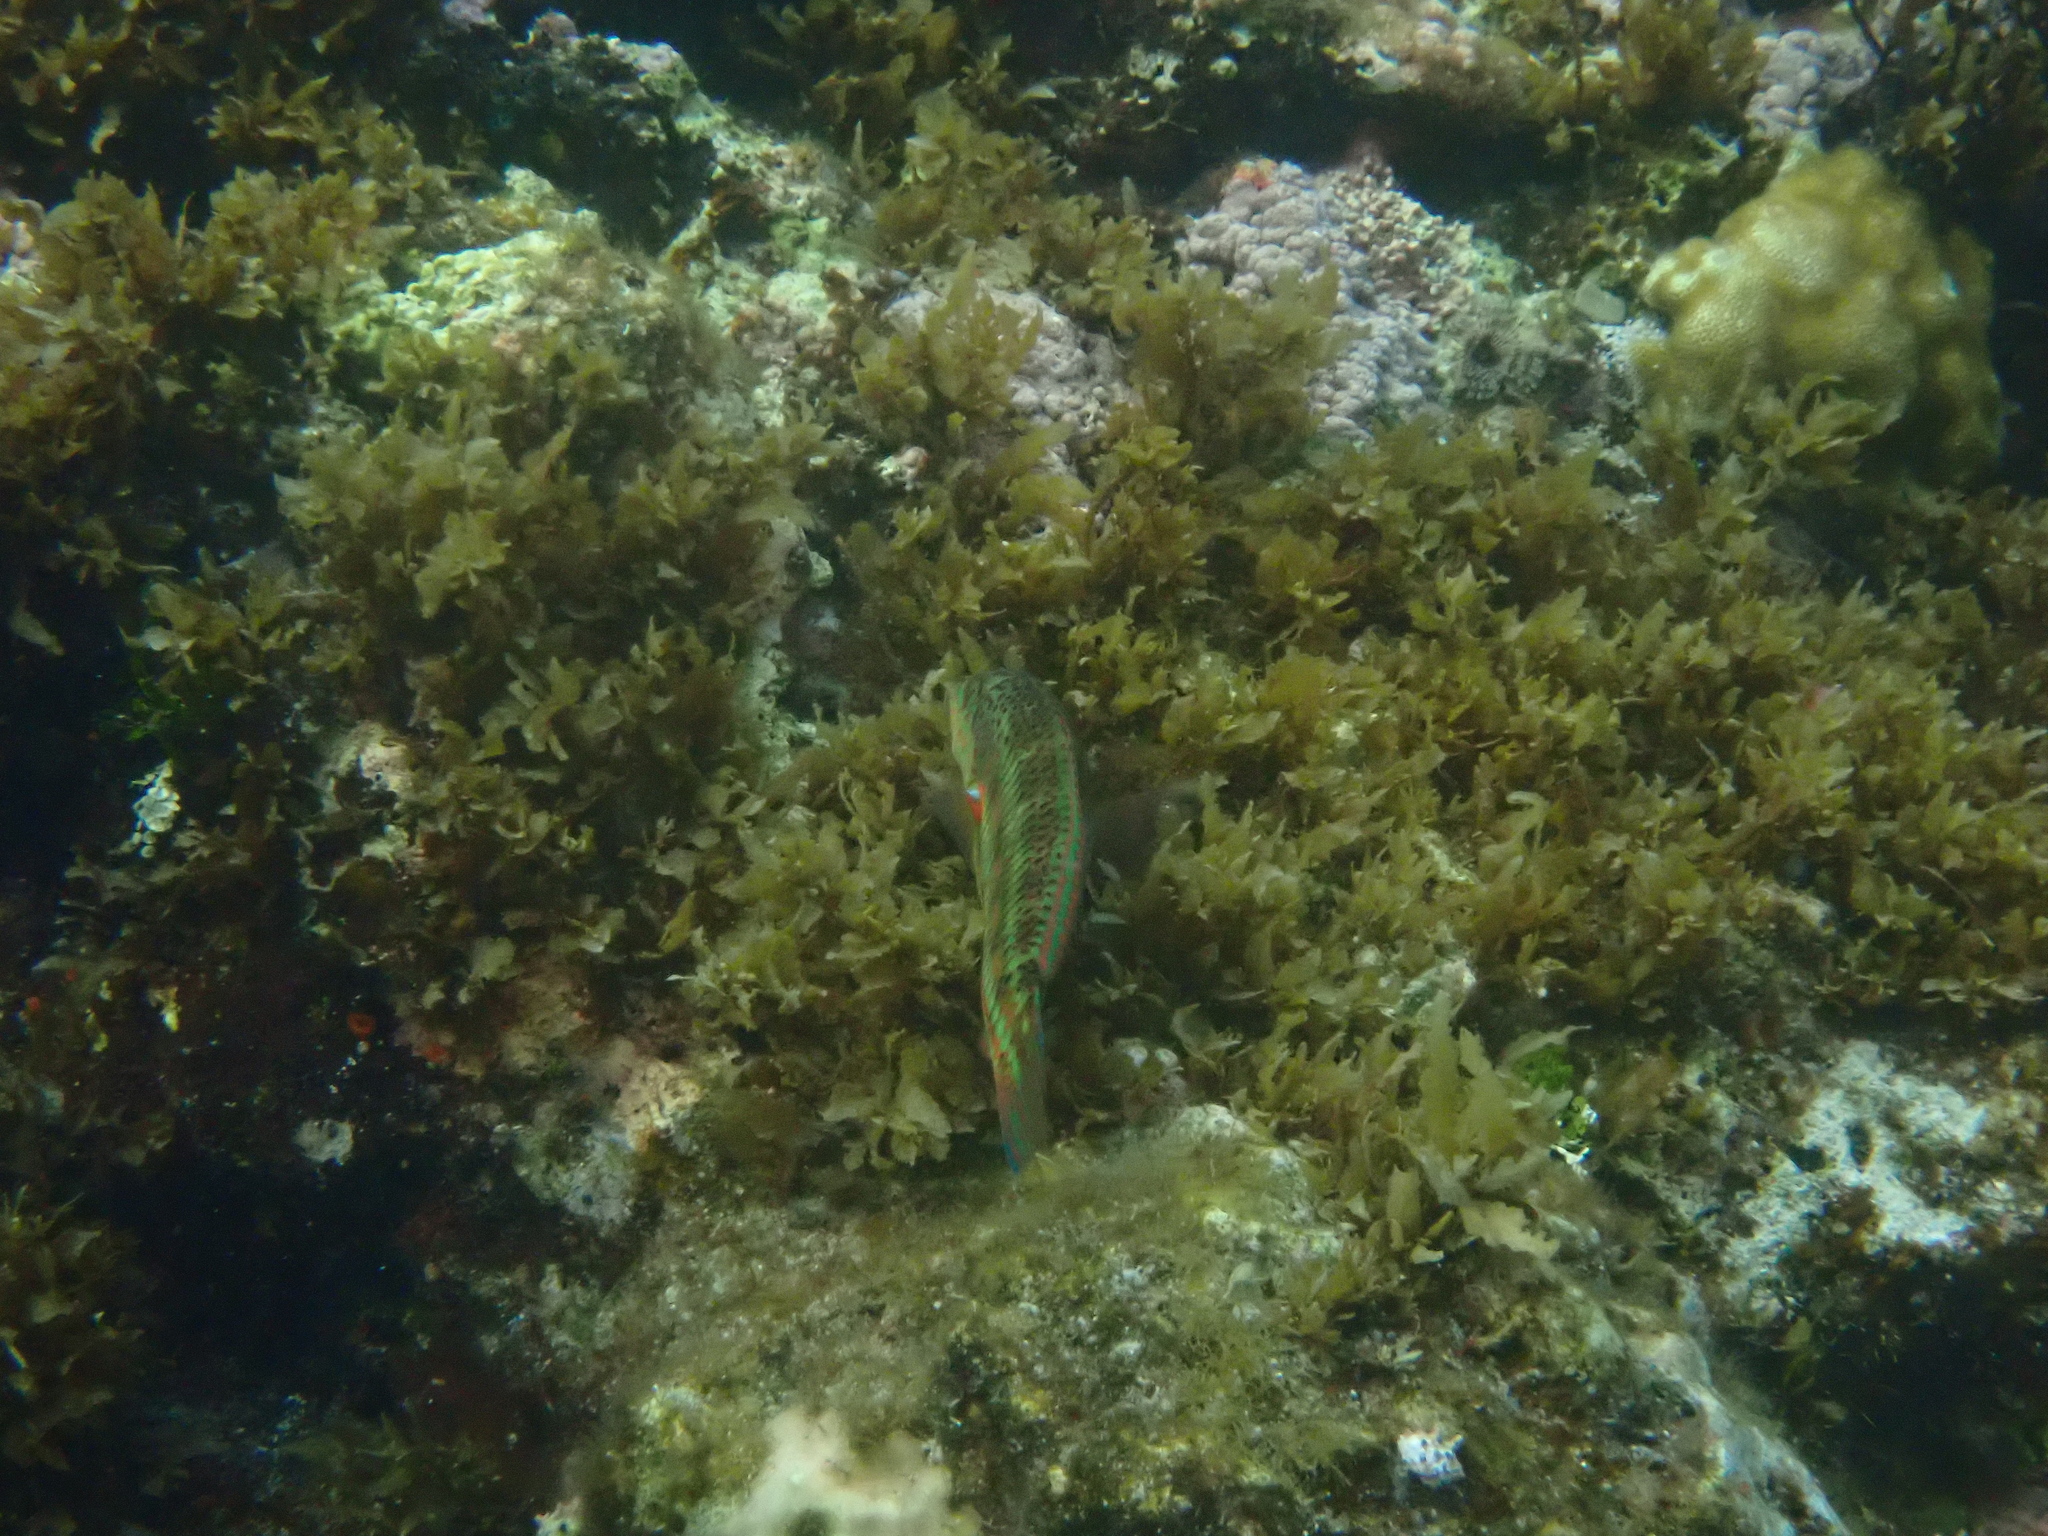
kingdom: Animalia
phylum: Chordata
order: Perciformes
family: Labridae
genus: Thalassoma
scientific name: Thalassoma purpureum
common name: Parrotfish
